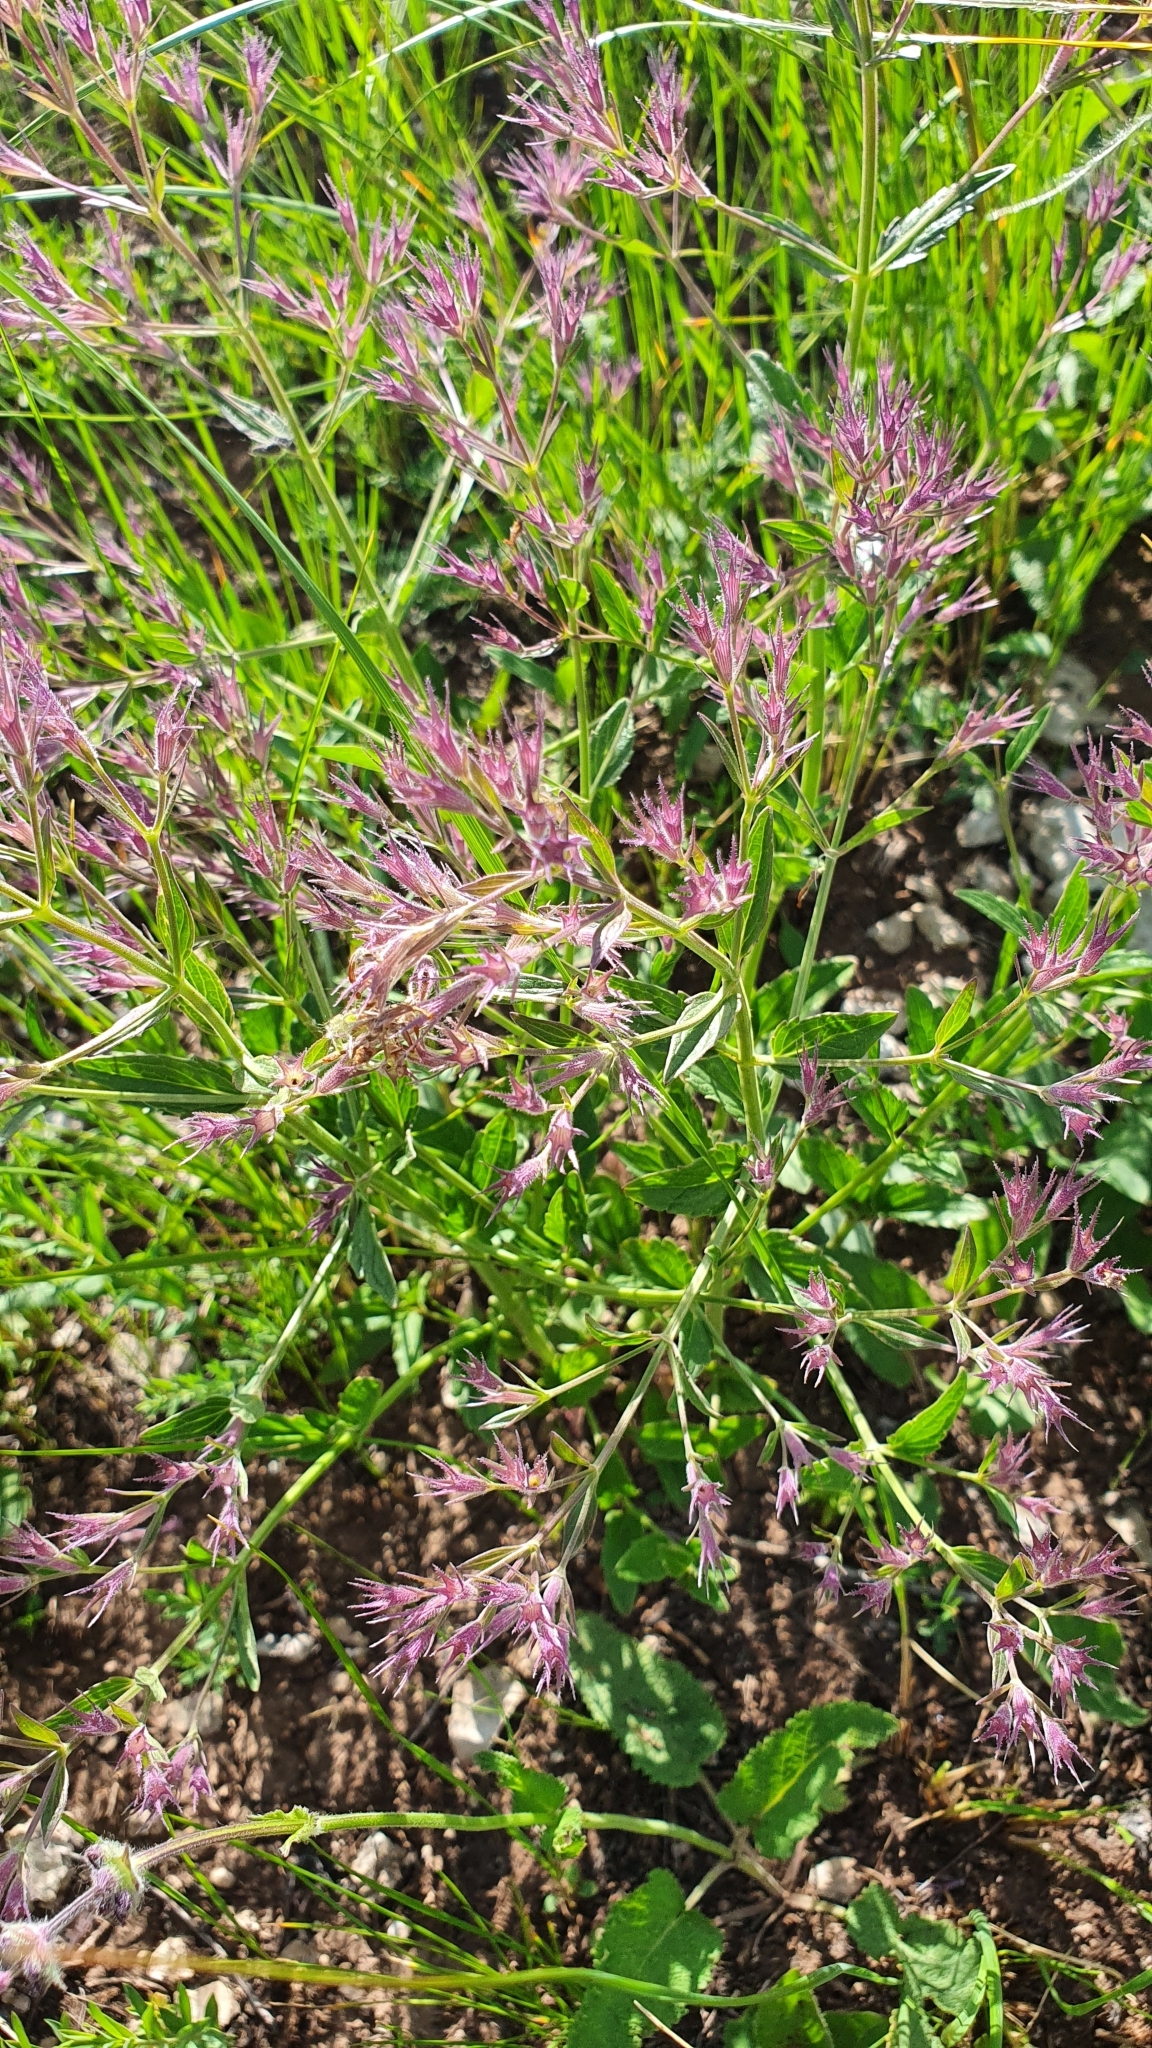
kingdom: Plantae
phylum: Tracheophyta
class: Magnoliopsida
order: Lamiales
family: Lamiaceae
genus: Nepeta
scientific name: Nepeta ucranica
